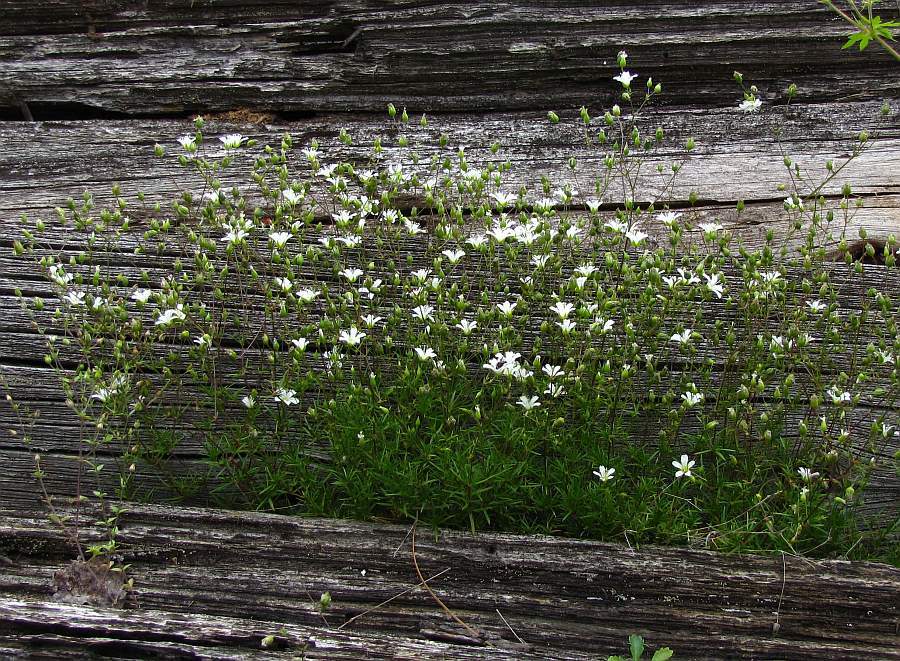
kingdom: Plantae
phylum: Tracheophyta
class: Magnoliopsida
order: Caryophyllales
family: Caryophyllaceae
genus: Sabulina
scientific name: Sabulina michauxii
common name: Michaux's stitchwort
